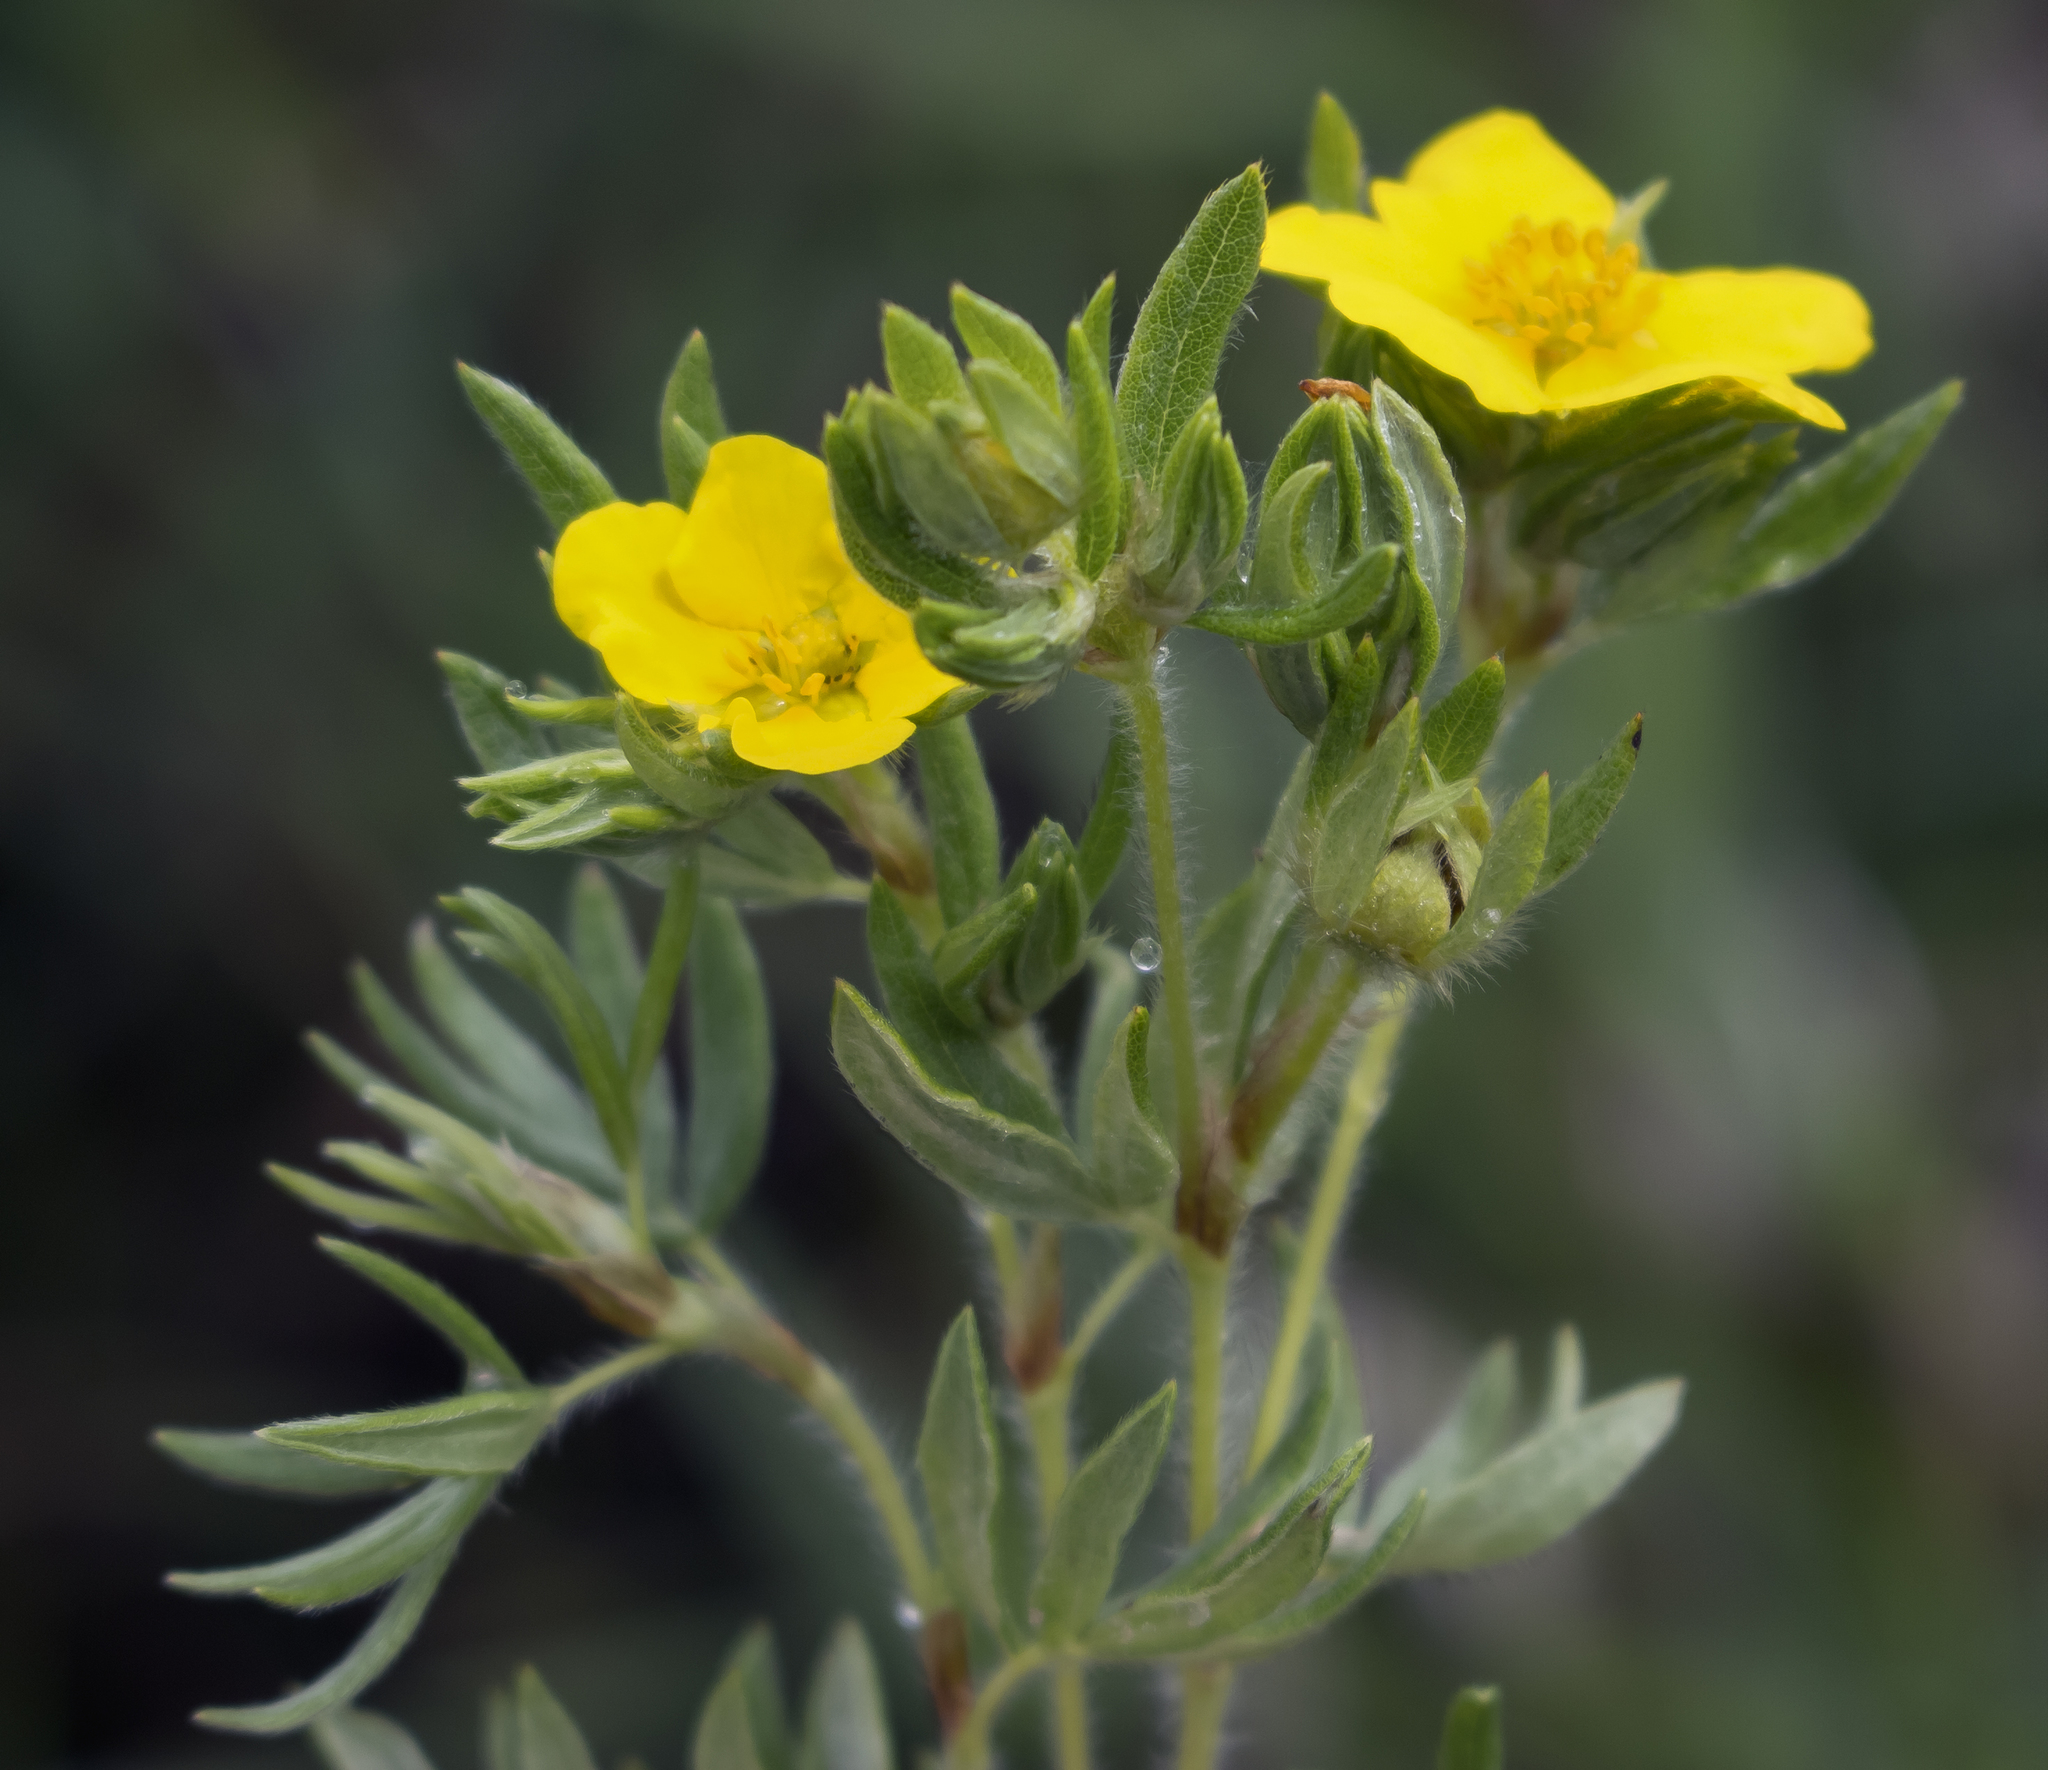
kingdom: Plantae
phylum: Tracheophyta
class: Magnoliopsida
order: Rosales
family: Rosaceae
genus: Dasiphora
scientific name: Dasiphora fruticosa
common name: Shrubby cinquefoil
